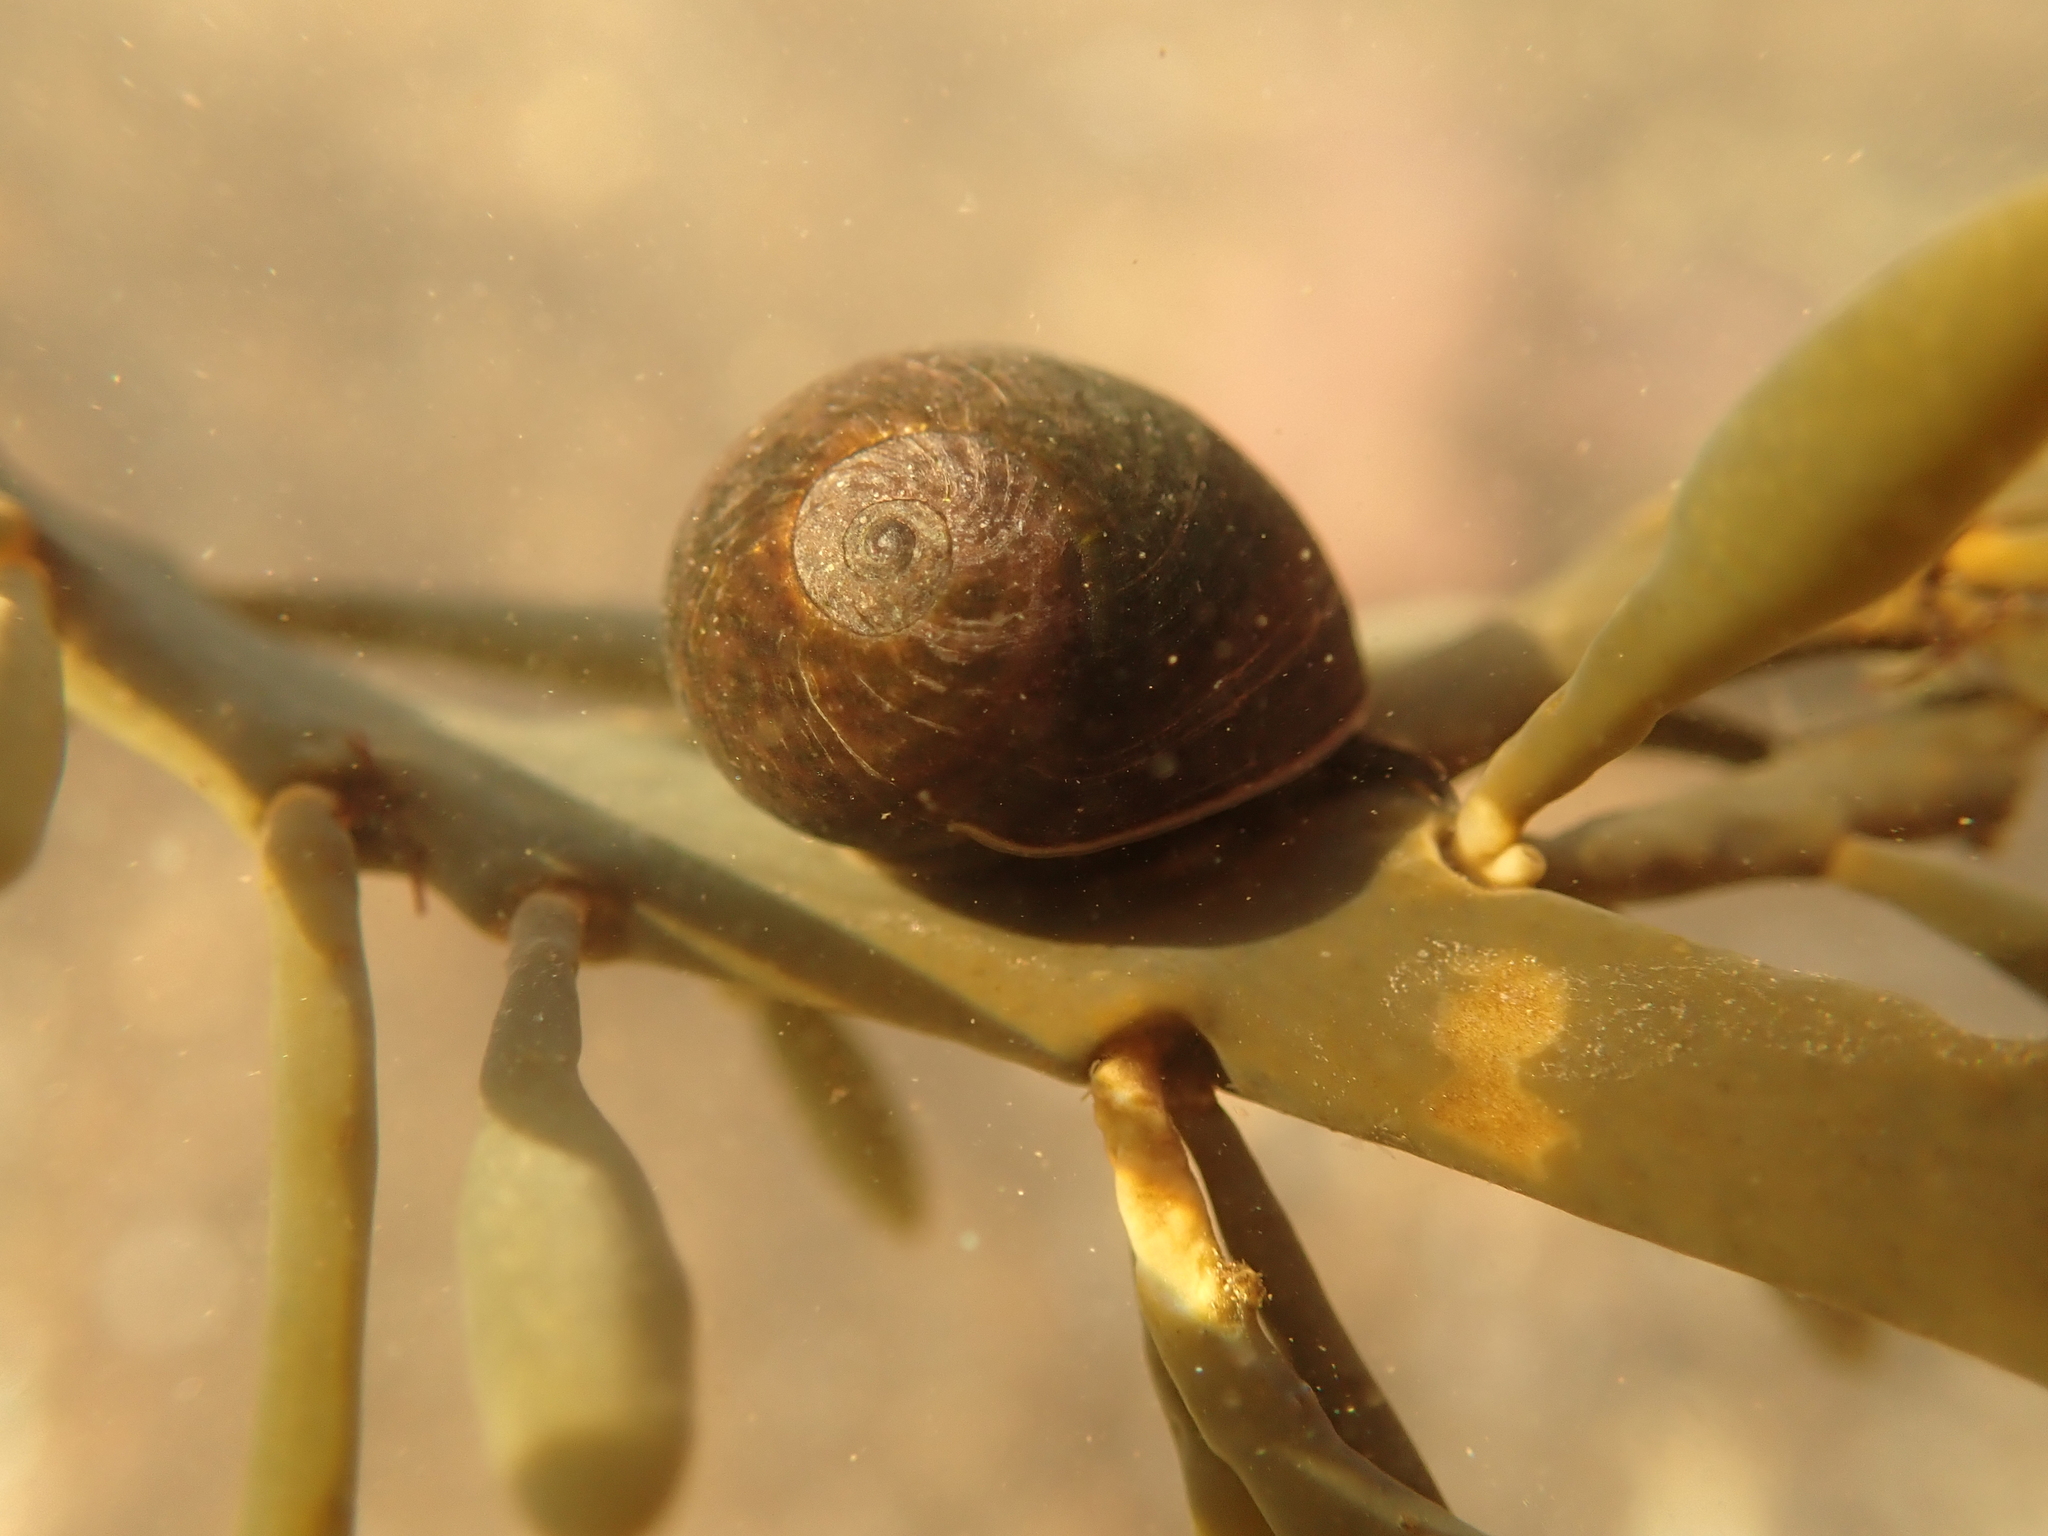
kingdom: Animalia
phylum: Mollusca
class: Gastropoda
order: Littorinimorpha
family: Littorinidae
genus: Littorina
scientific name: Littorina obtusata
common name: Flat periwinkle
